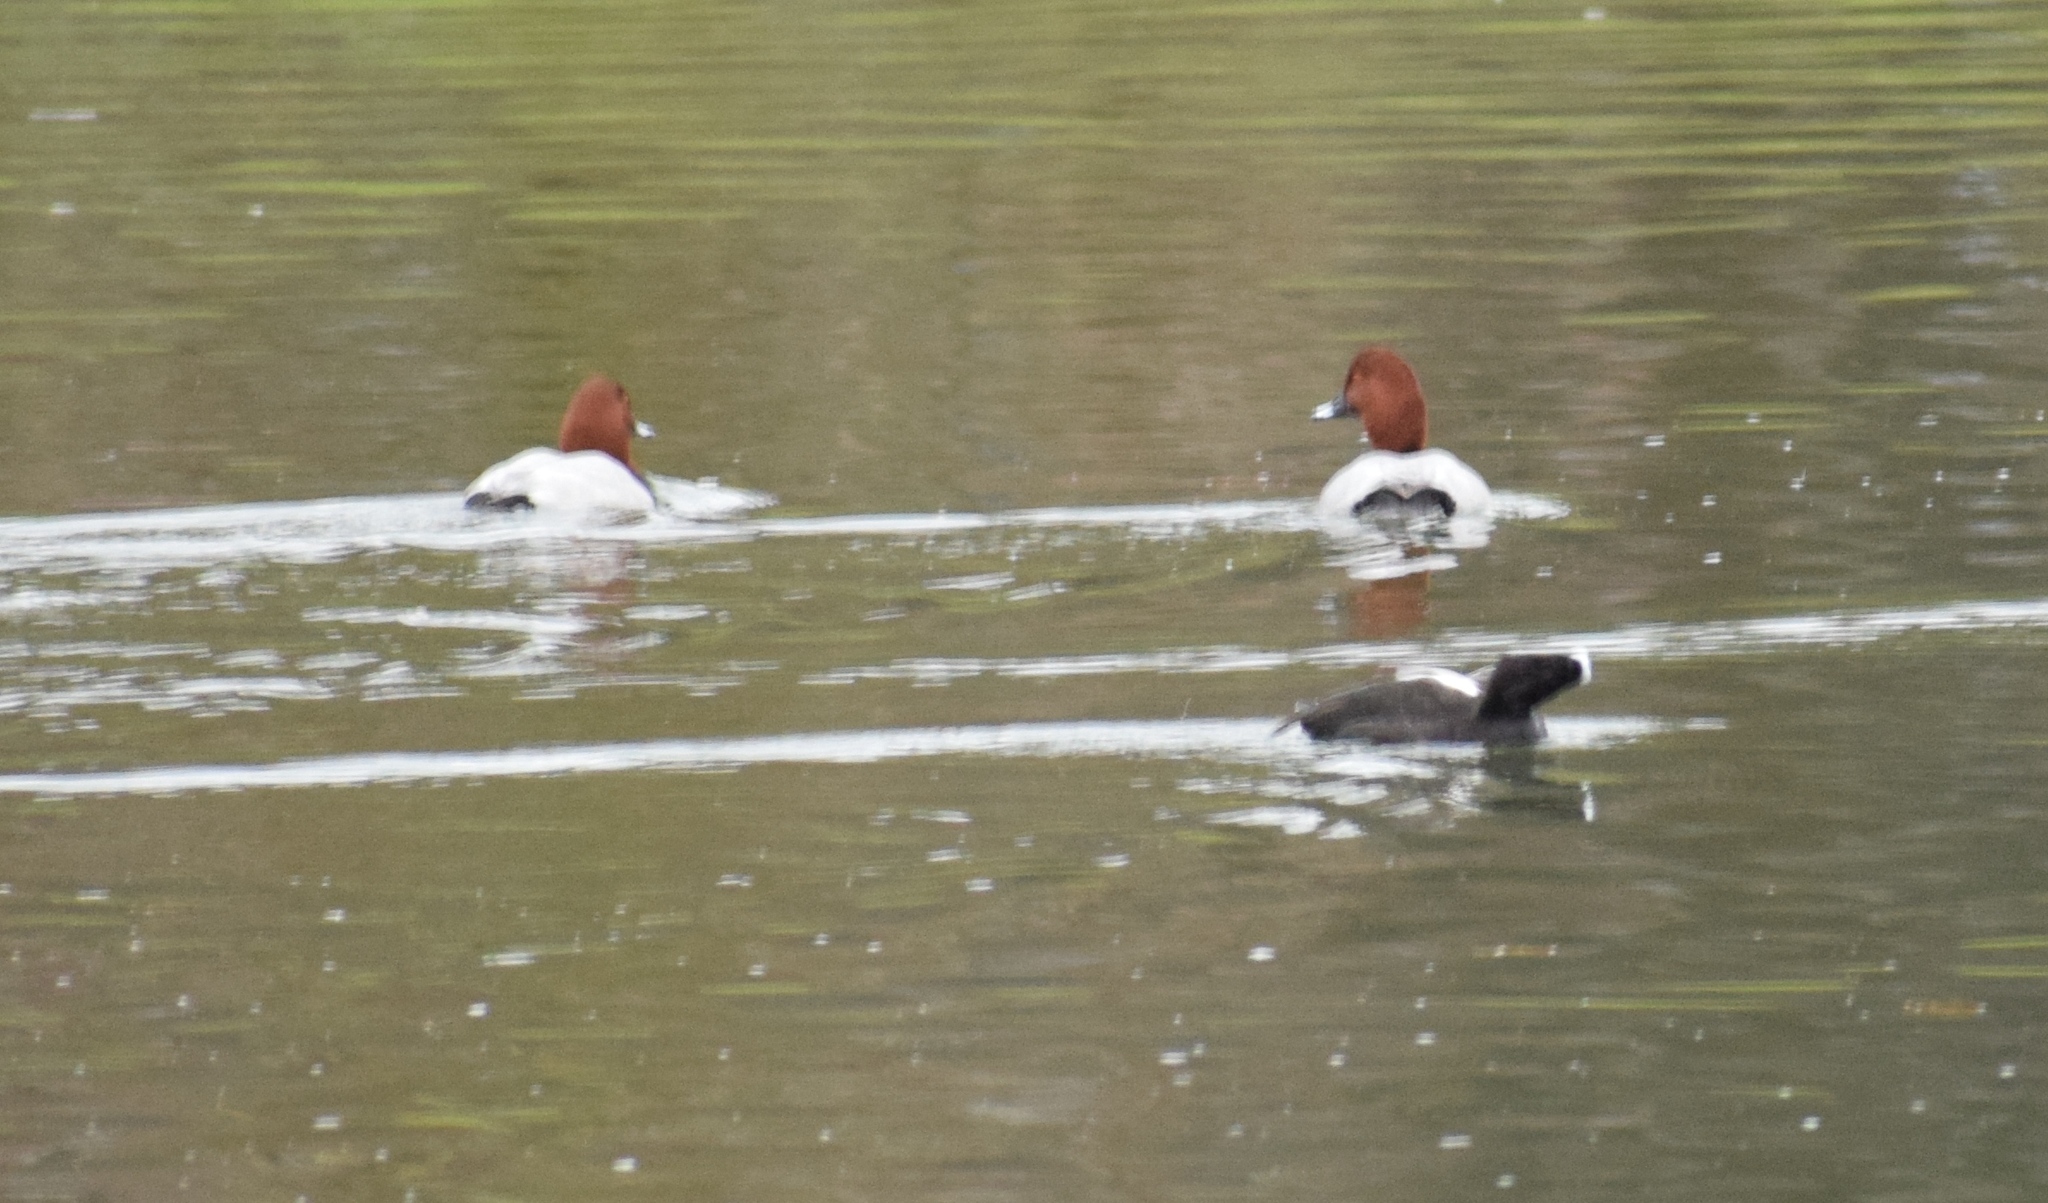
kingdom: Animalia
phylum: Chordata
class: Aves
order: Anseriformes
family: Anatidae
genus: Aythya
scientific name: Aythya ferina
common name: Common pochard
